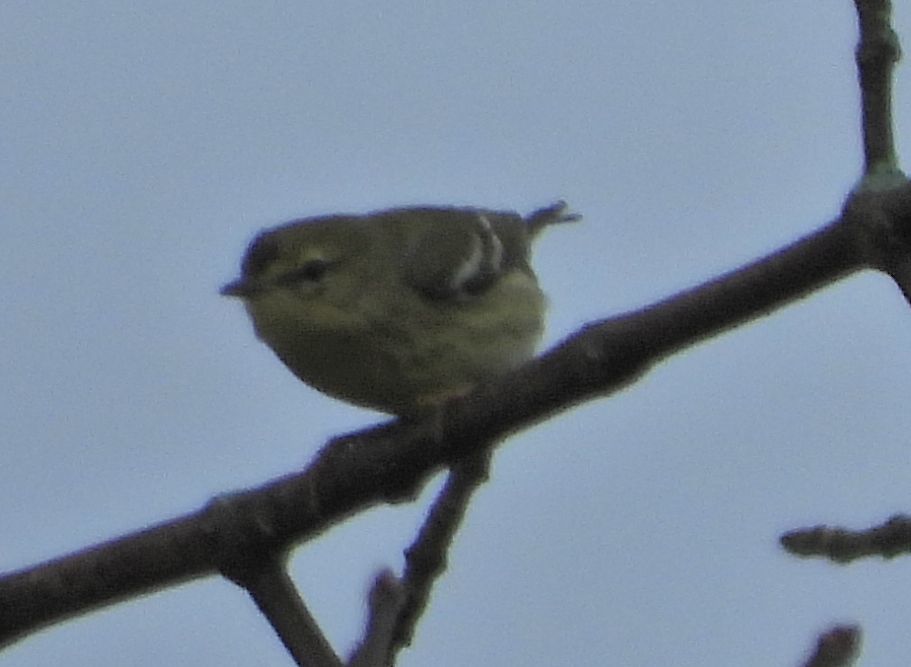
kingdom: Animalia
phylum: Chordata
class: Aves
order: Passeriformes
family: Parulidae
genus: Setophaga
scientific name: Setophaga striata
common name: Blackpoll warbler
